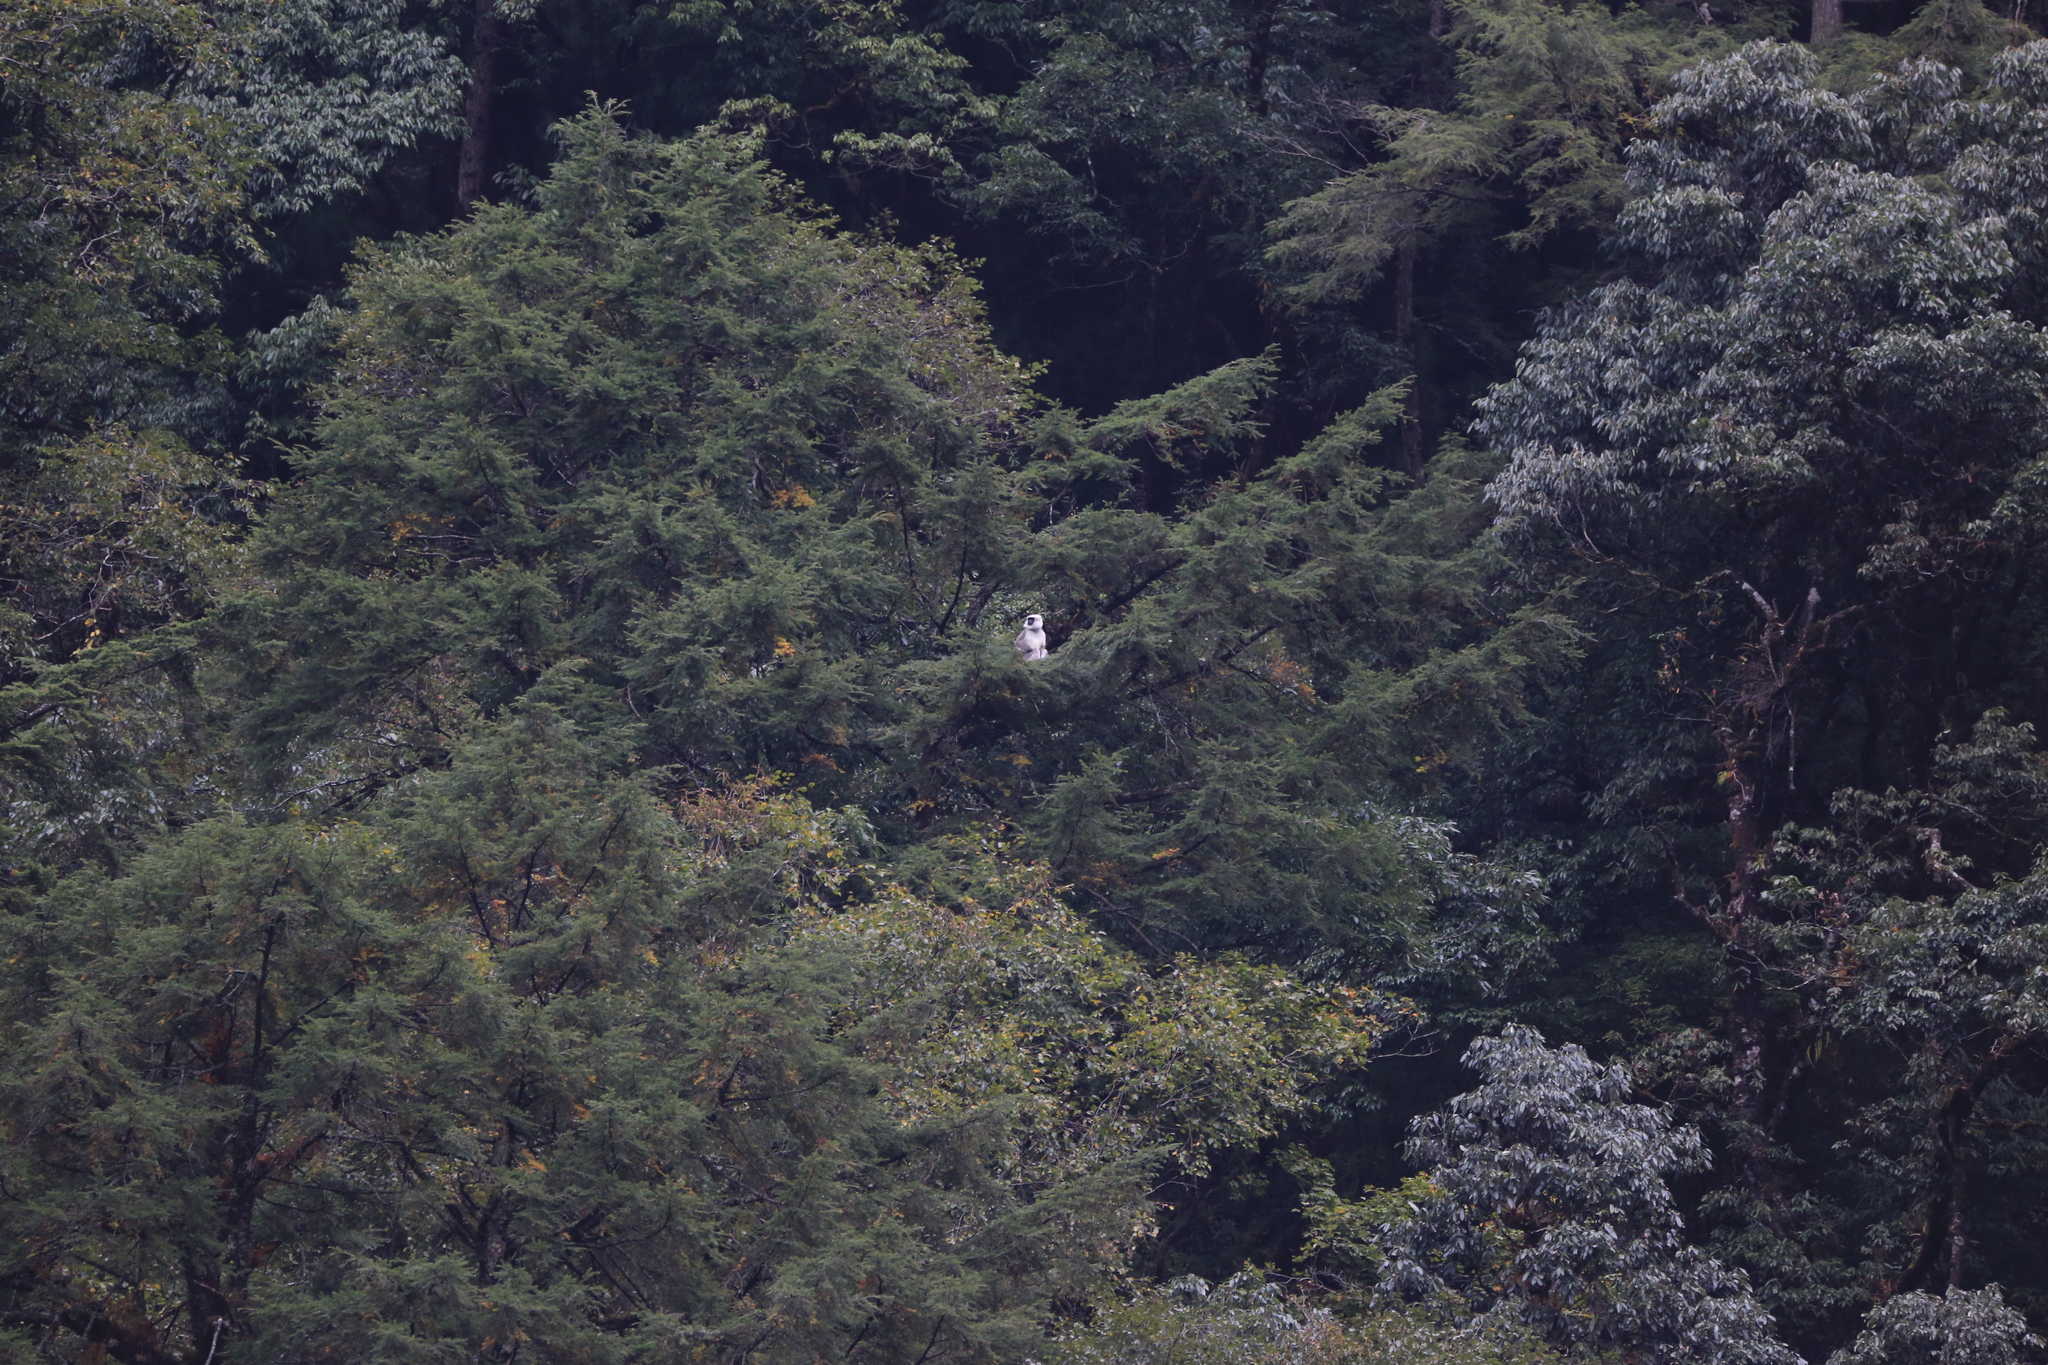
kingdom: Animalia
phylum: Chordata
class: Mammalia
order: Primates
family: Cercopithecidae
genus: Semnopithecus
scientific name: Semnopithecus schistaceus
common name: Nepal gray langur
